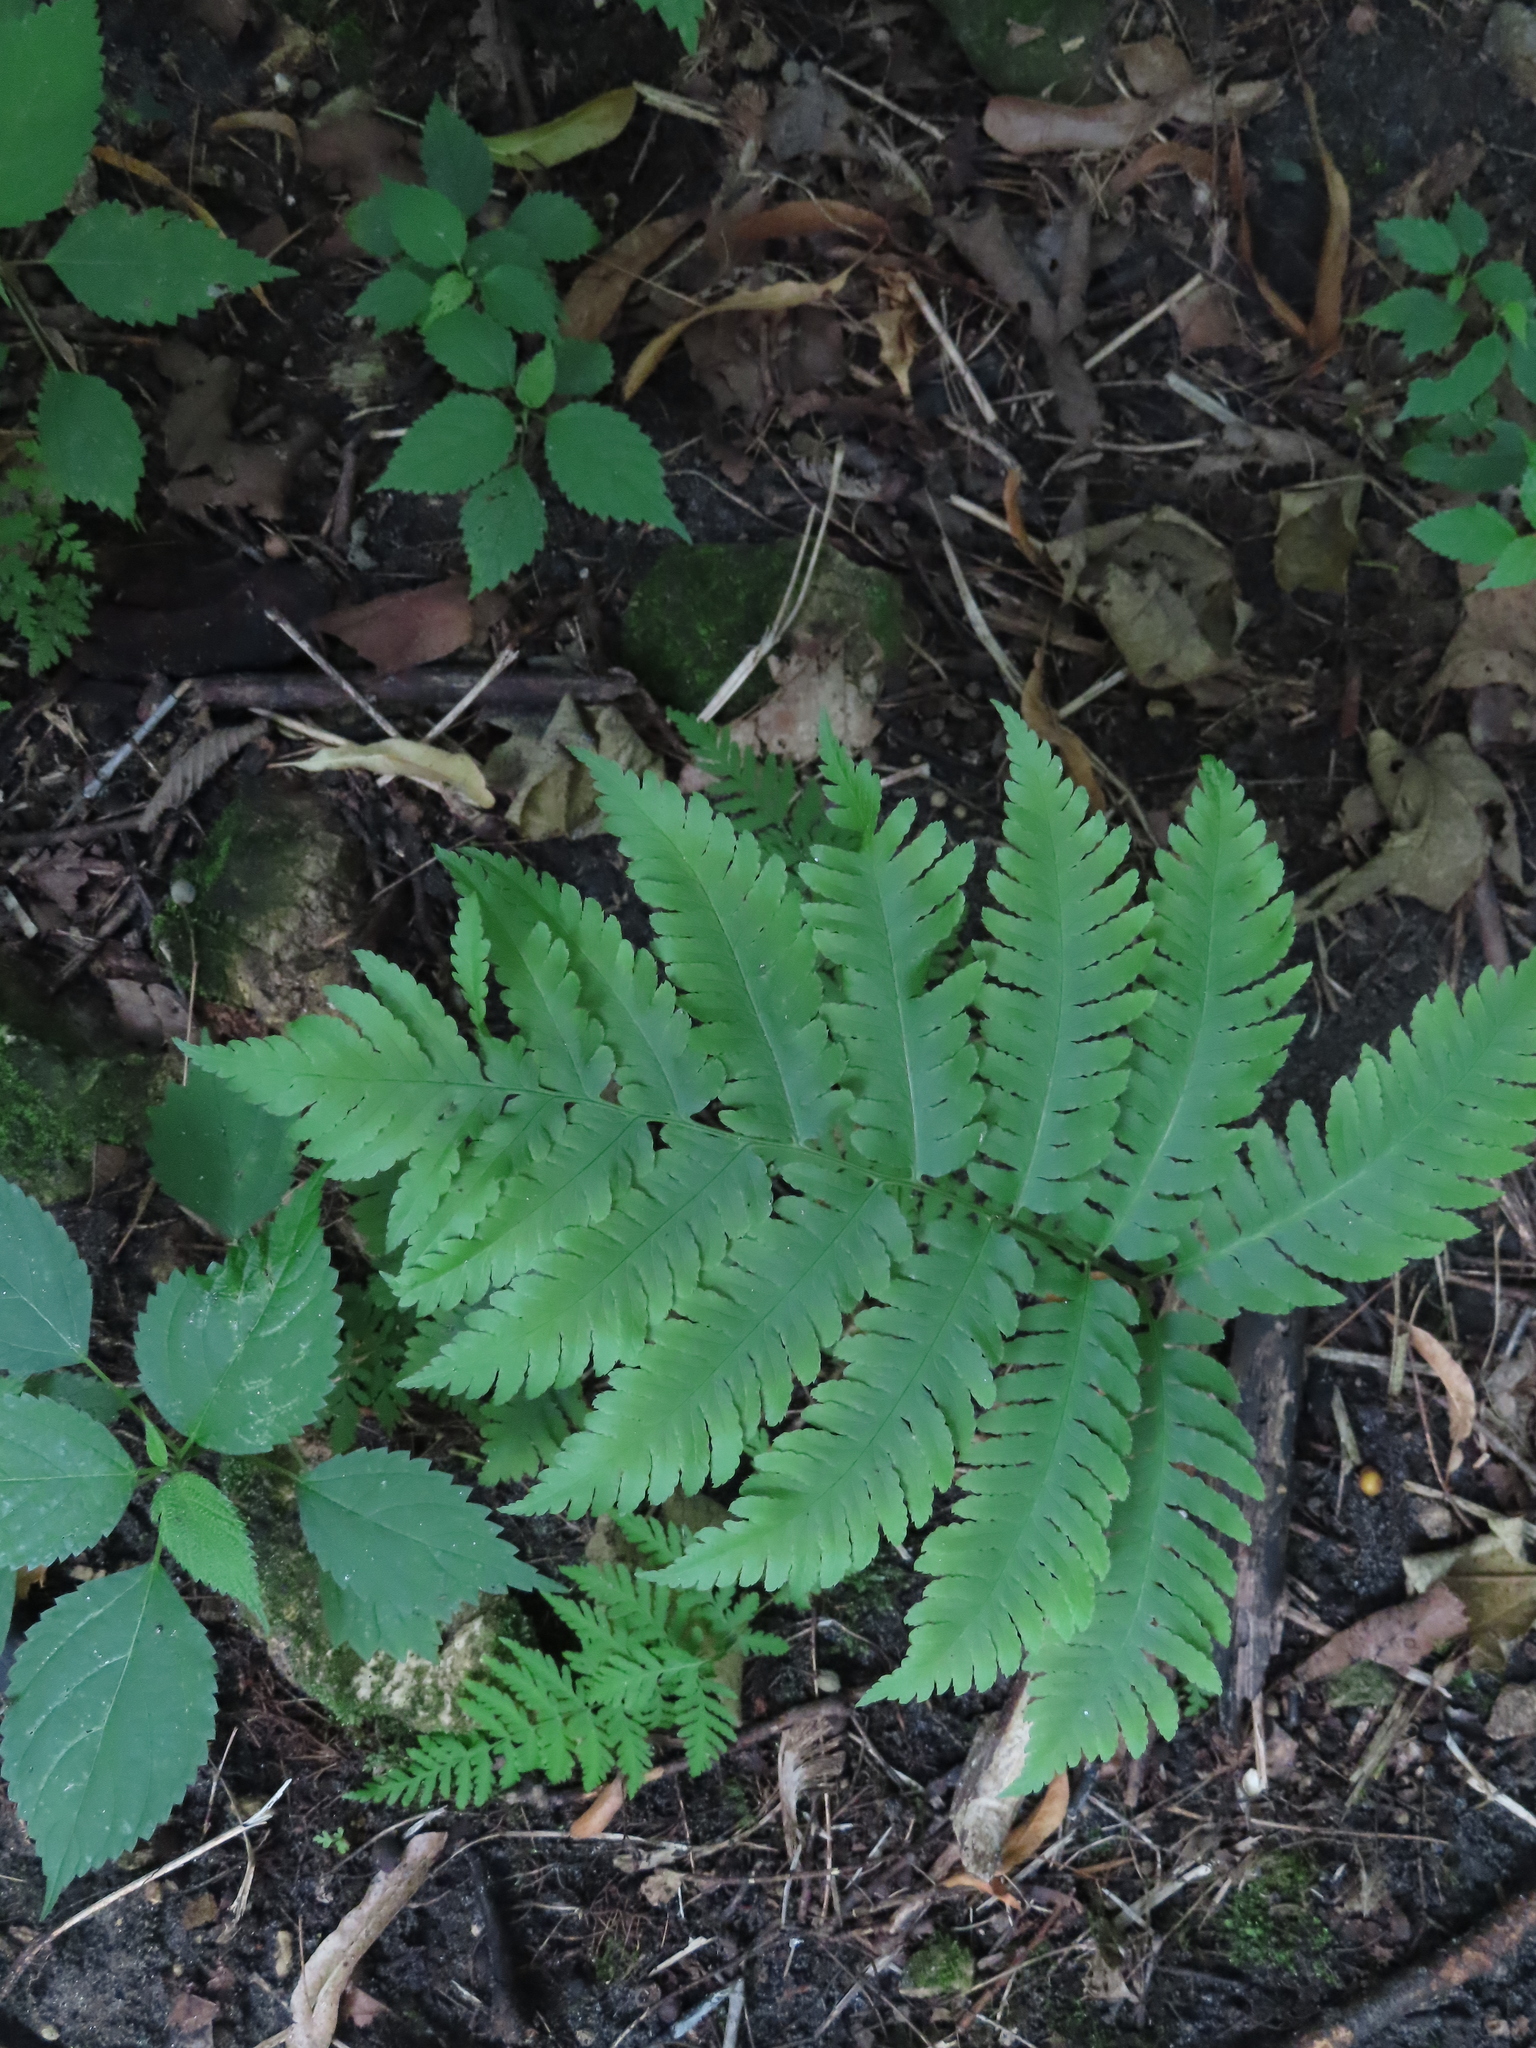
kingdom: Plantae
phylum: Tracheophyta
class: Polypodiopsida
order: Polypodiales
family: Dryopteridaceae
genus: Dryopteris
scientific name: Dryopteris goldieana
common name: Goldie's fern
